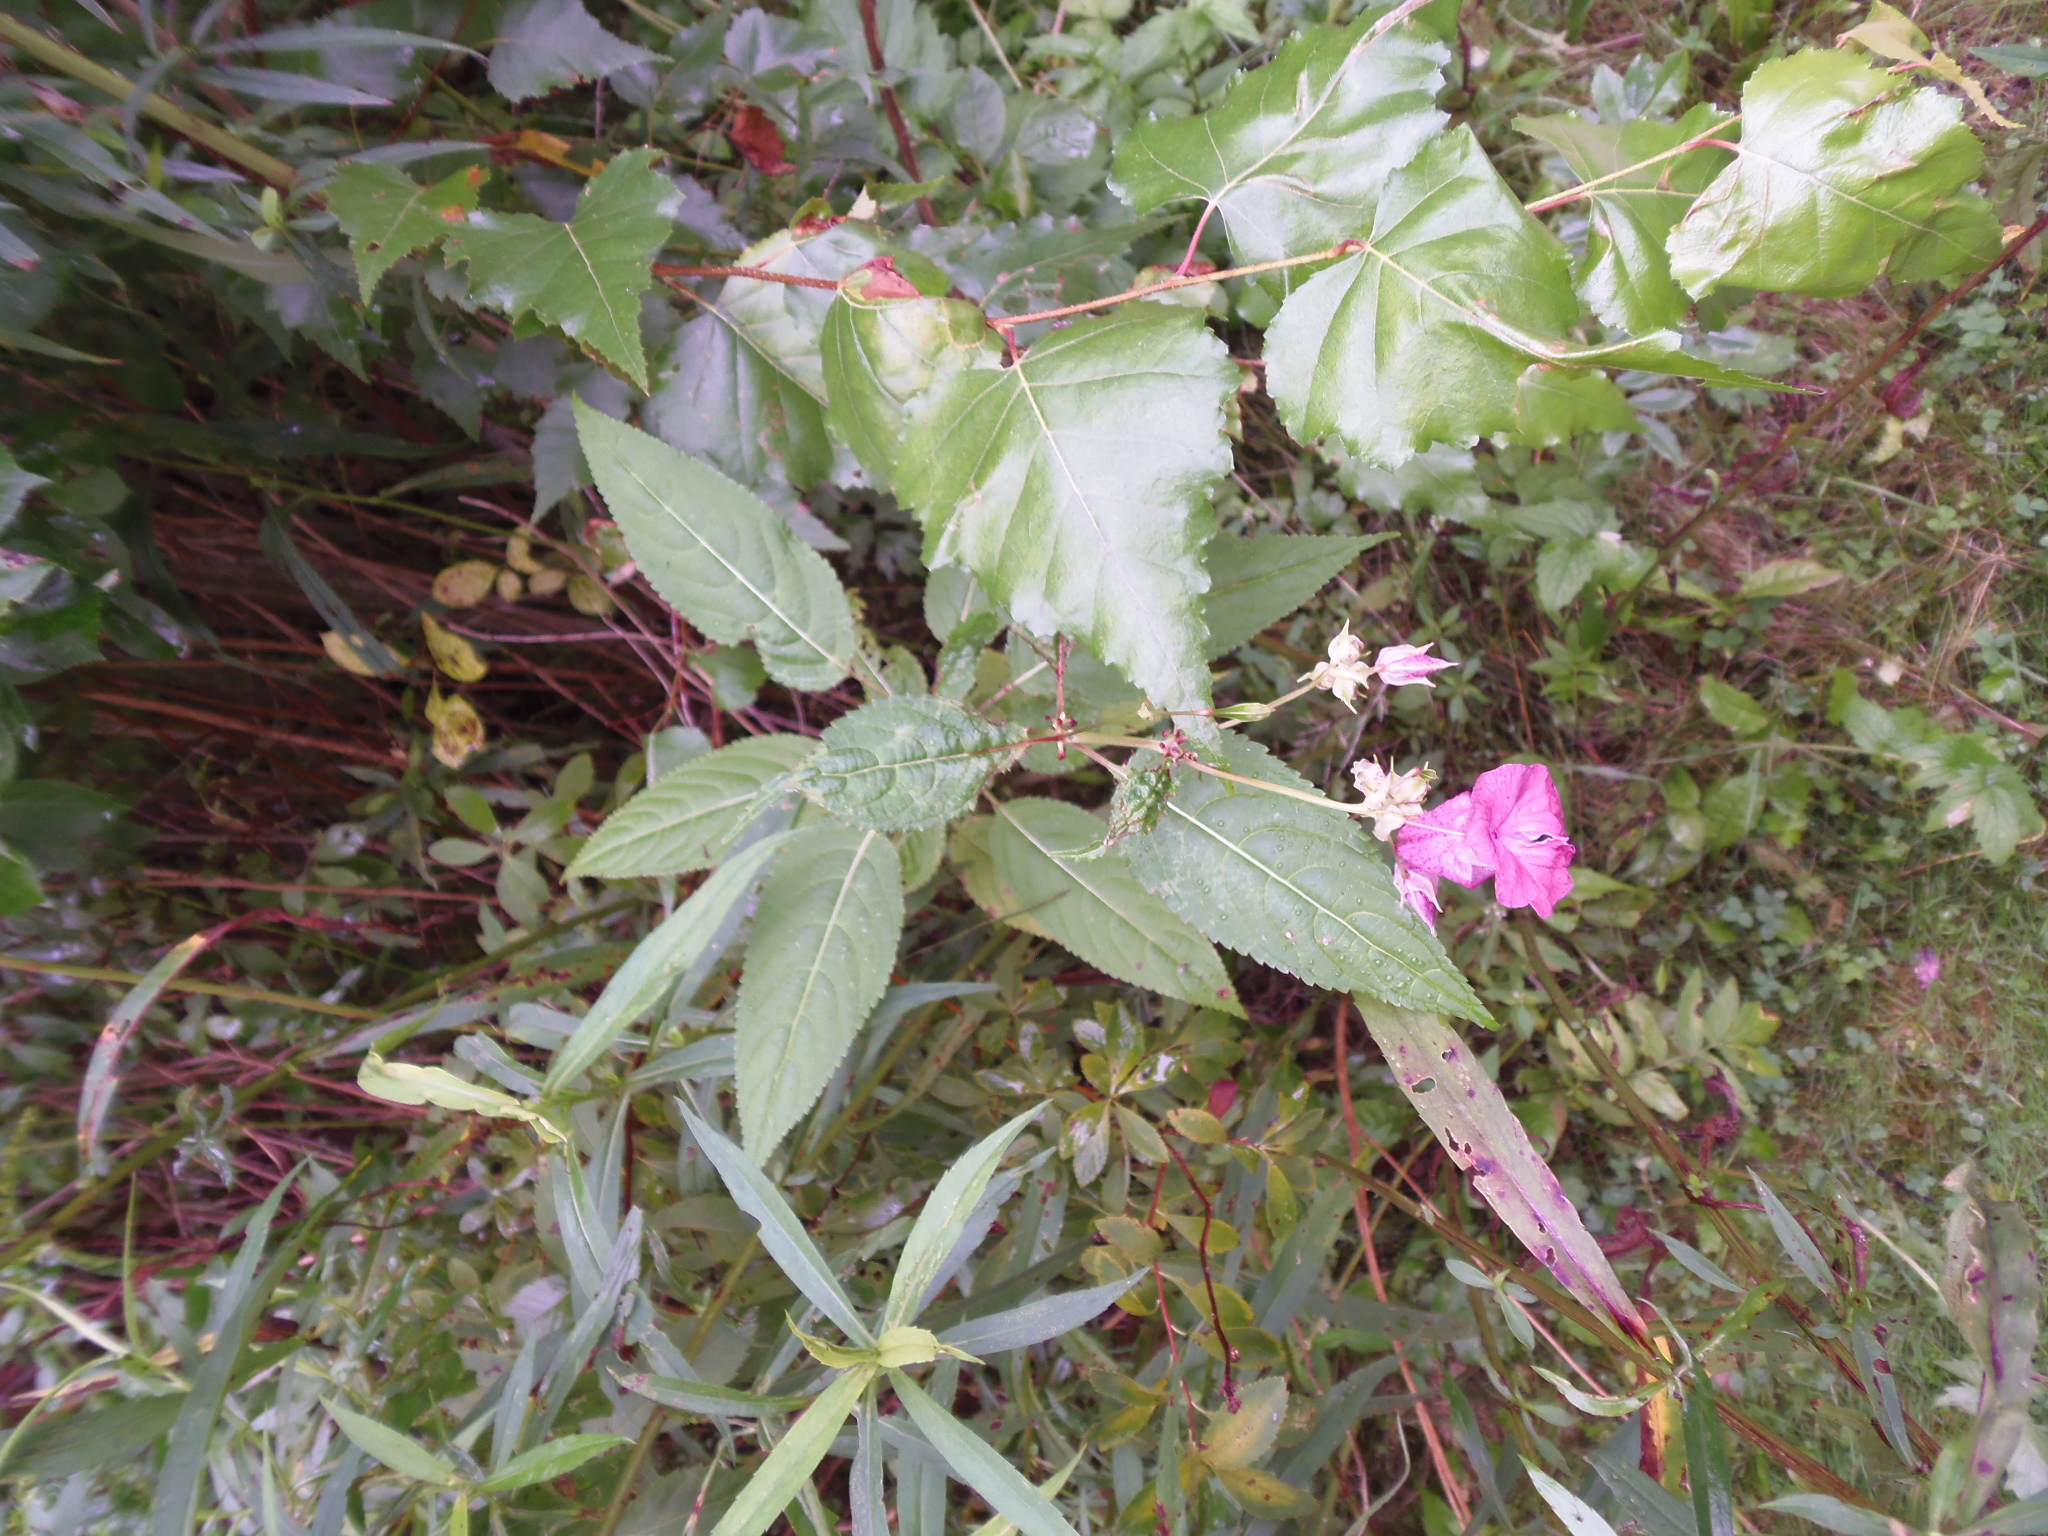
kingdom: Plantae
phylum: Tracheophyta
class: Magnoliopsida
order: Ericales
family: Balsaminaceae
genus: Impatiens
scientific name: Impatiens glandulifera
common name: Himalayan balsam
